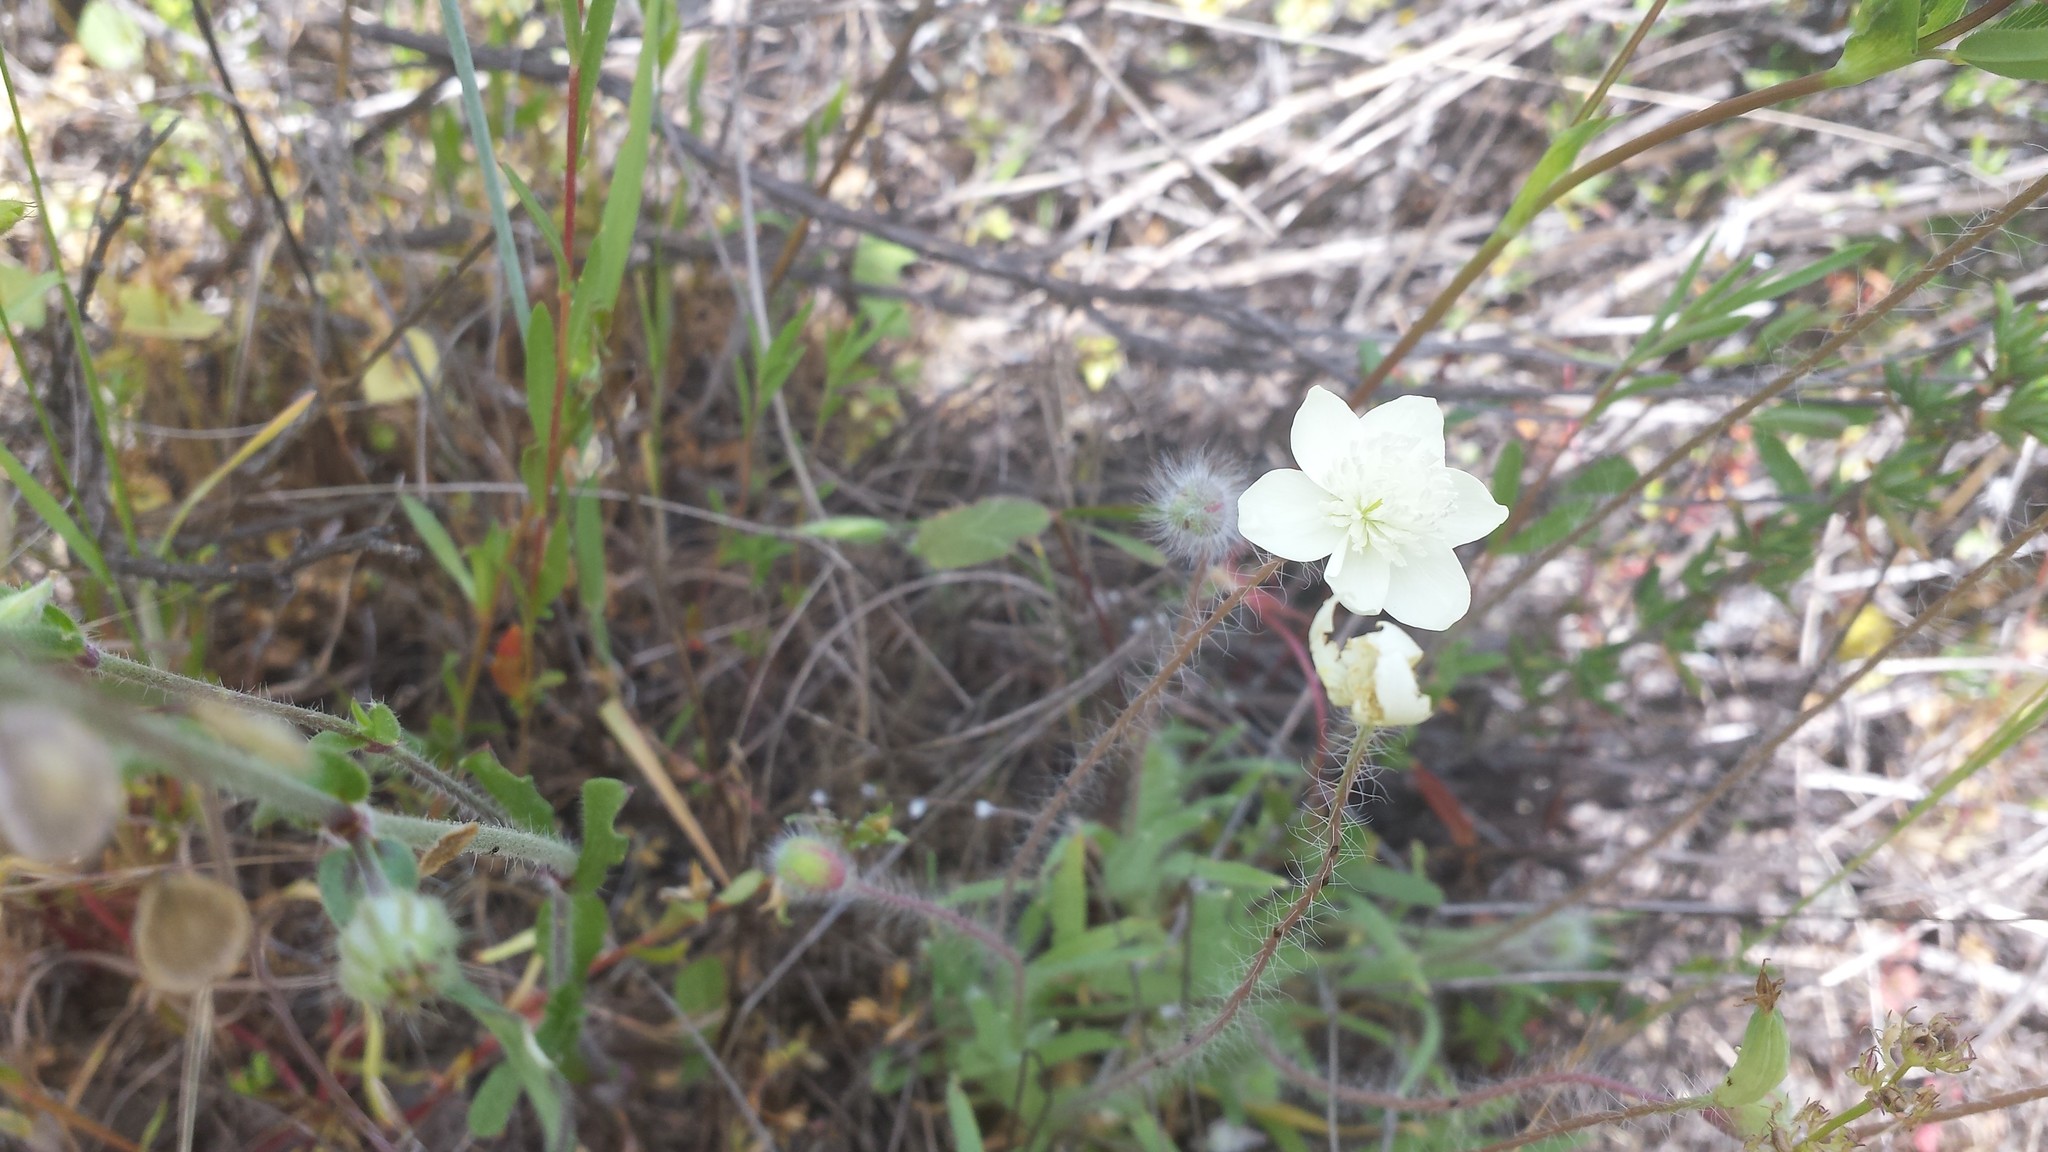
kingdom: Plantae
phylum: Tracheophyta
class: Magnoliopsida
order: Ranunculales
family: Papaveraceae
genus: Platystemon
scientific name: Platystemon californicus
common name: Cream-cups
